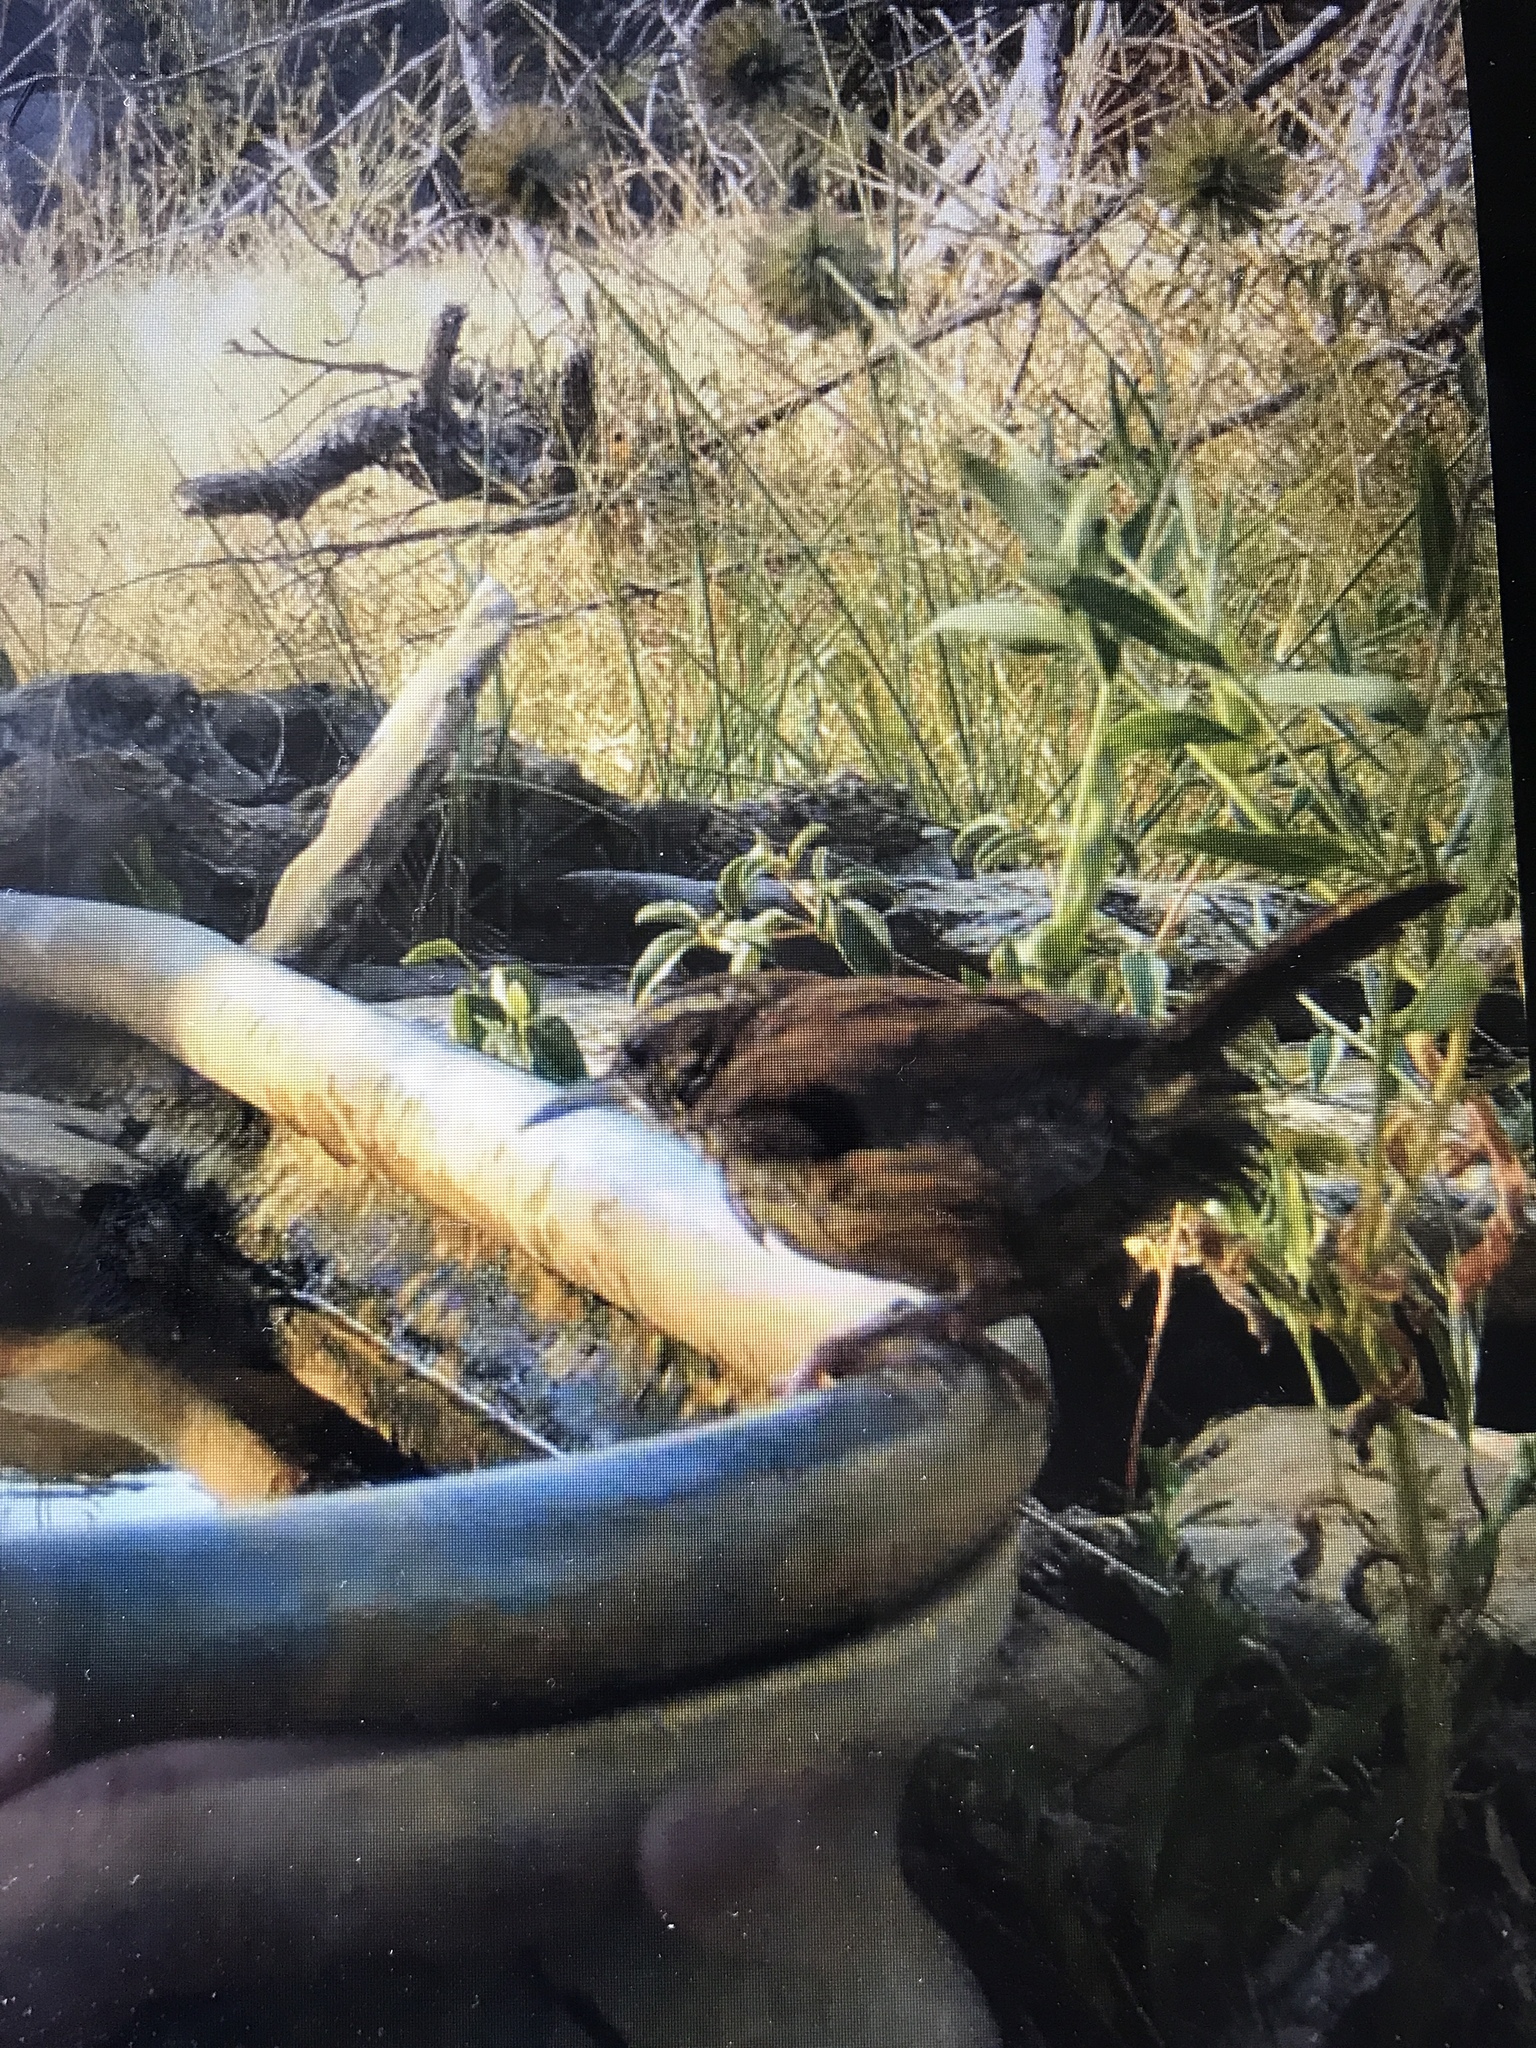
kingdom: Animalia
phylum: Chordata
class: Aves
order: Passeriformes
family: Troglodytidae
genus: Thryothorus
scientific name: Thryothorus ludovicianus
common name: Carolina wren
